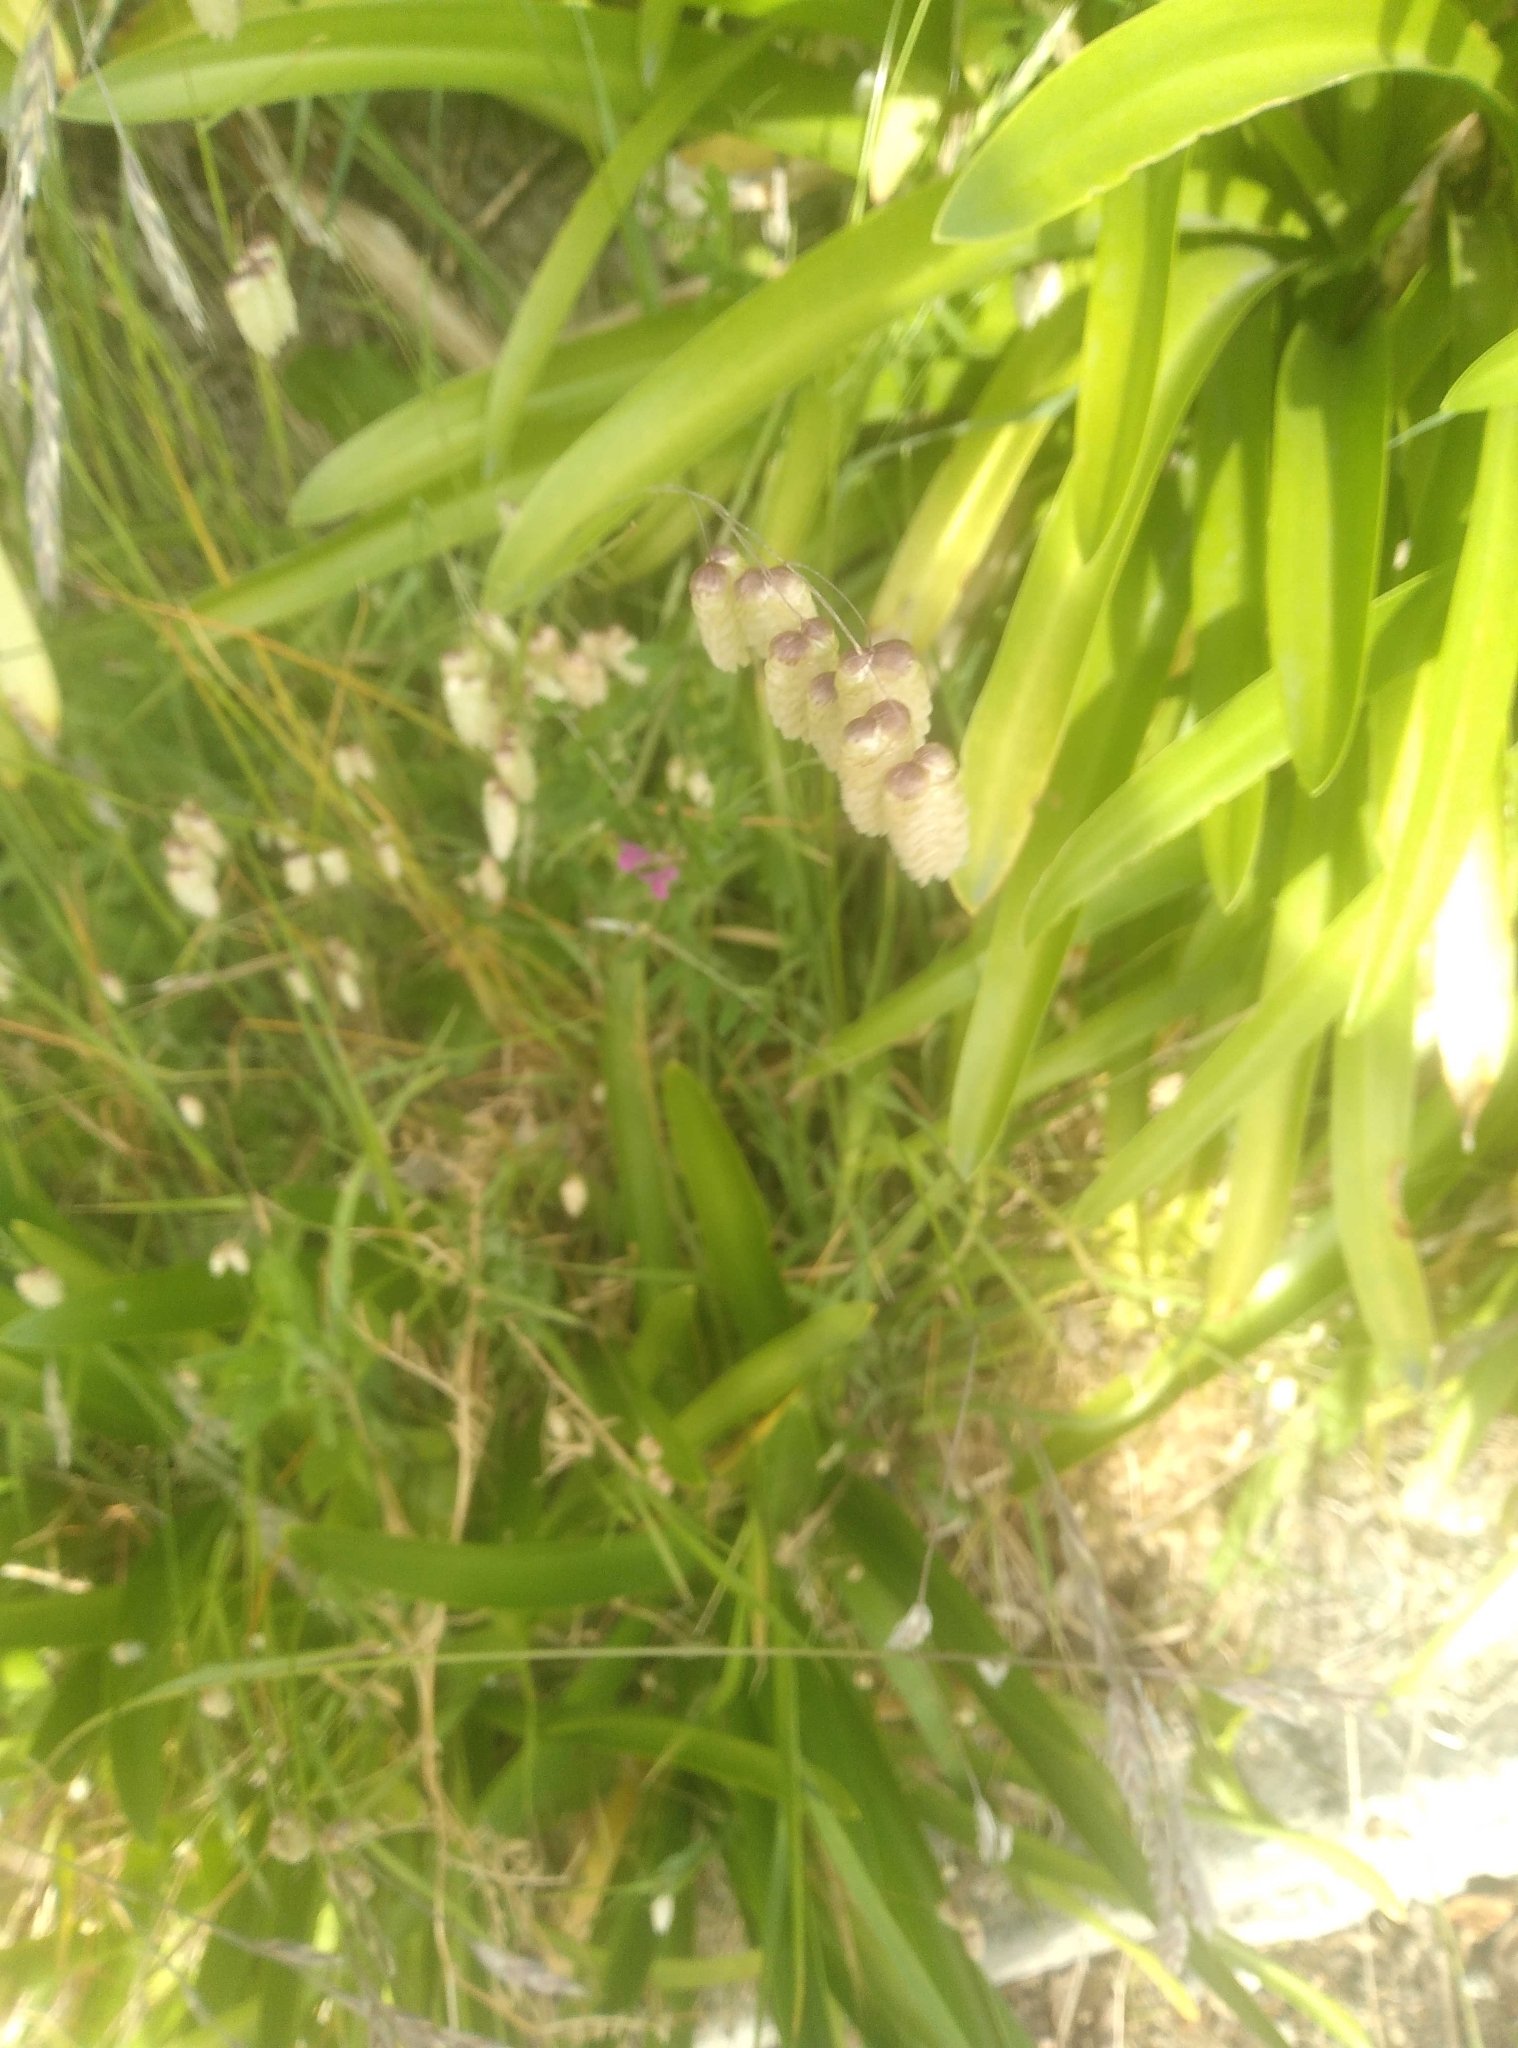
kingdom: Plantae
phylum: Tracheophyta
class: Liliopsida
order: Poales
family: Poaceae
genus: Briza
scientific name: Briza maxima
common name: Big quakinggrass
